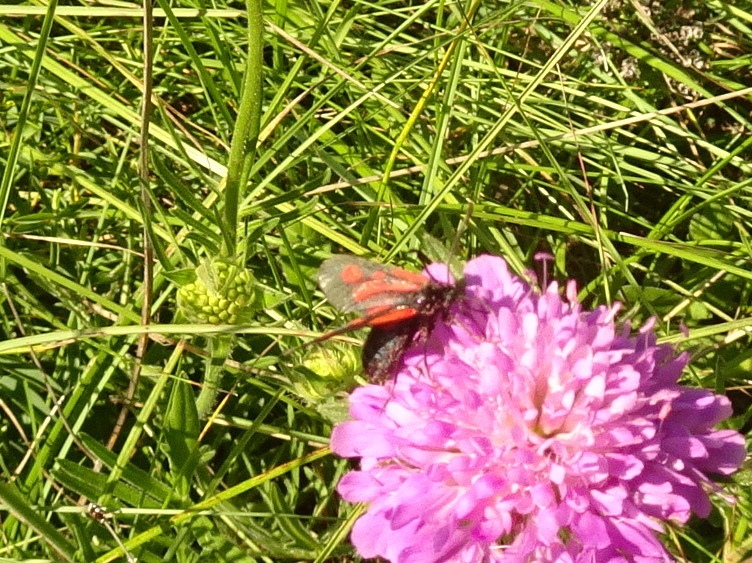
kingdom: Animalia
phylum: Arthropoda
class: Insecta
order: Lepidoptera
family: Zygaenidae
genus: Zygaena
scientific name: Zygaena romeo
